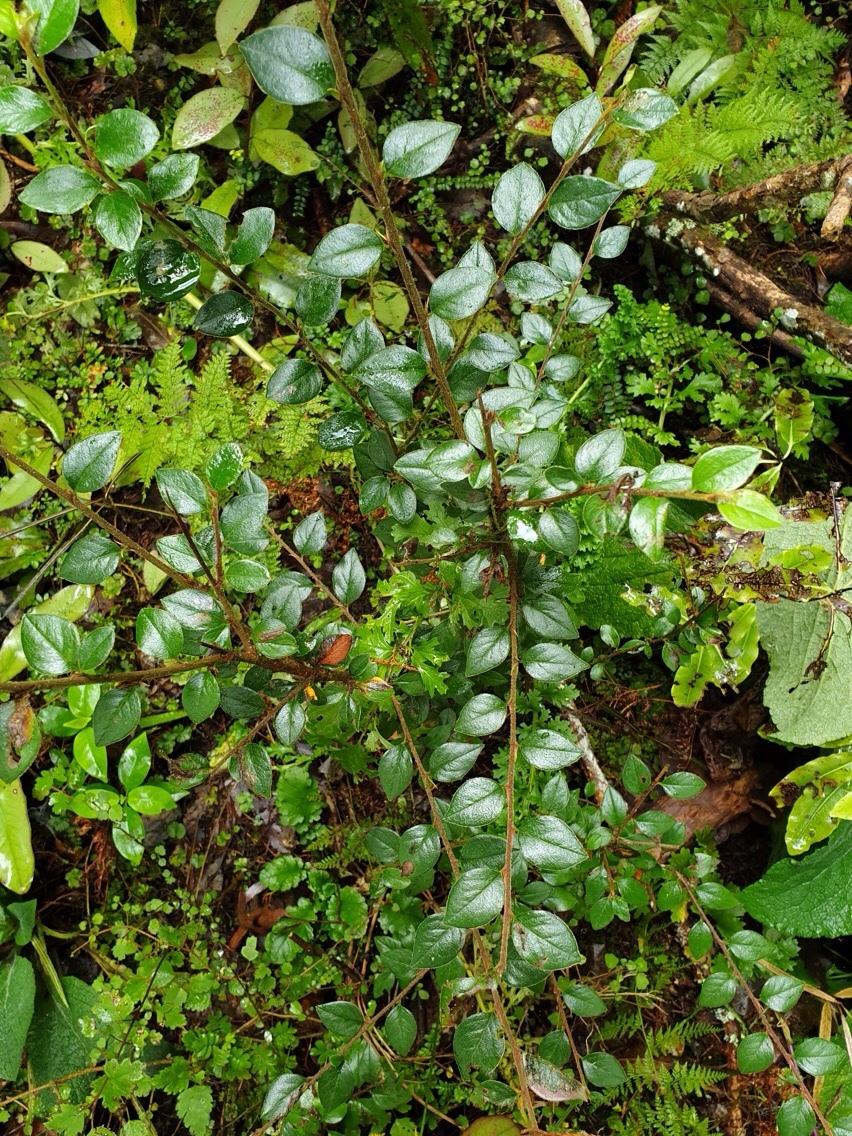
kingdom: Plantae
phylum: Tracheophyta
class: Magnoliopsida
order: Rosales
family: Rosaceae
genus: Cotoneaster
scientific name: Cotoneaster simonsii
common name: Himalayan cotoneaster
